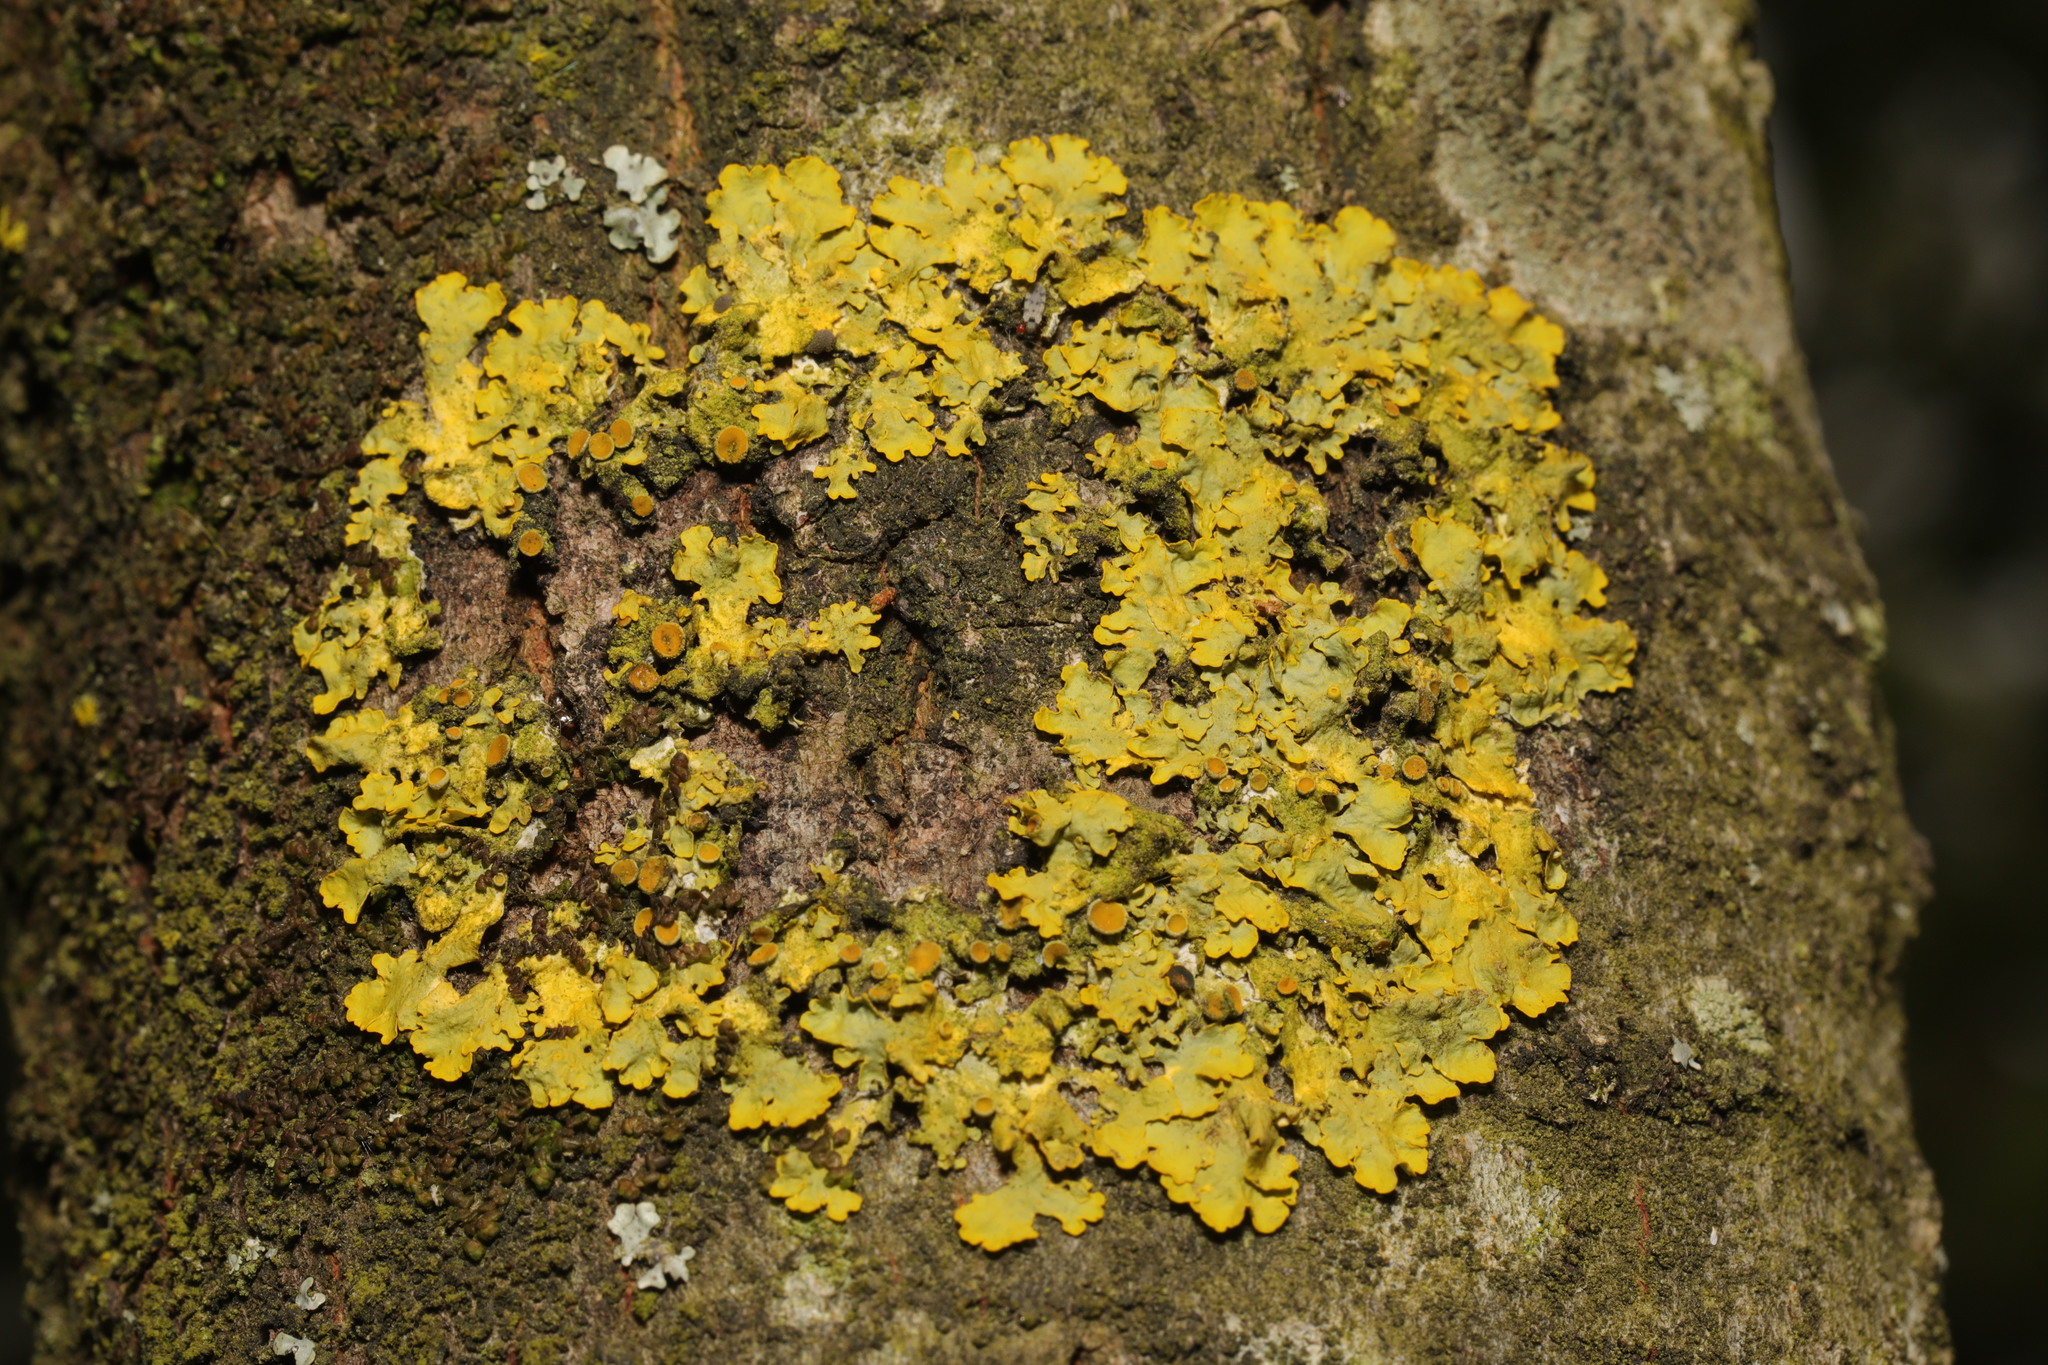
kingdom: Fungi
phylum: Ascomycota
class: Lecanoromycetes
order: Teloschistales
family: Teloschistaceae
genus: Xanthoria
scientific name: Xanthoria parietina
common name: Common orange lichen
